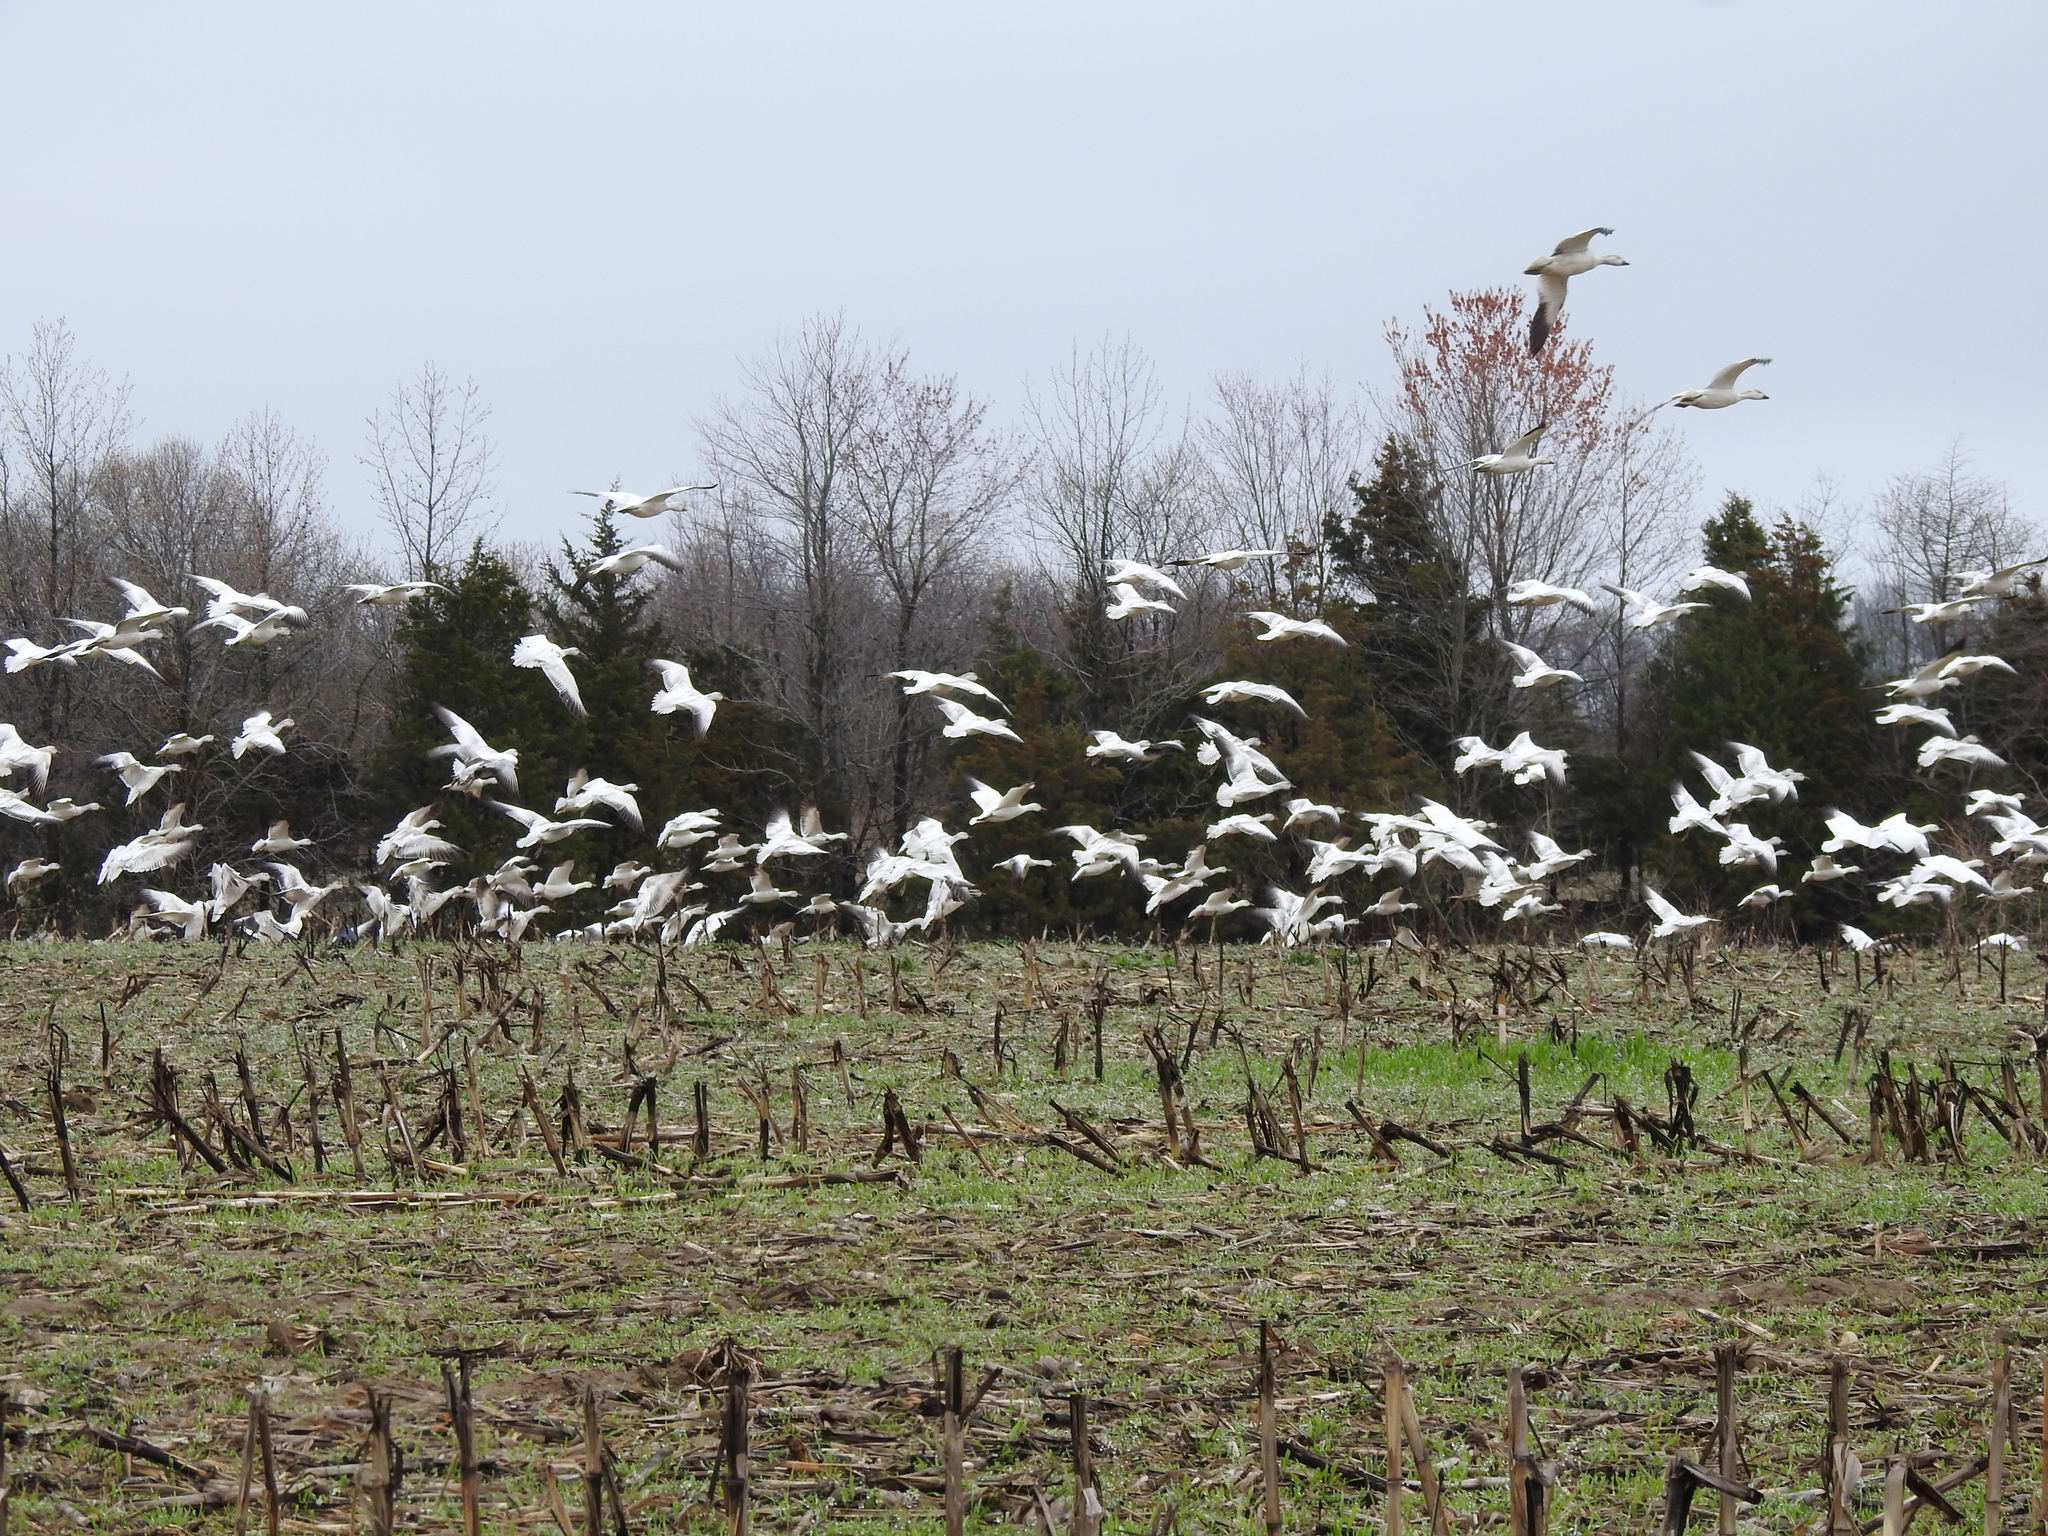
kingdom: Animalia
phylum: Chordata
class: Aves
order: Anseriformes
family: Anatidae
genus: Anser
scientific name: Anser caerulescens
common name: Snow goose
